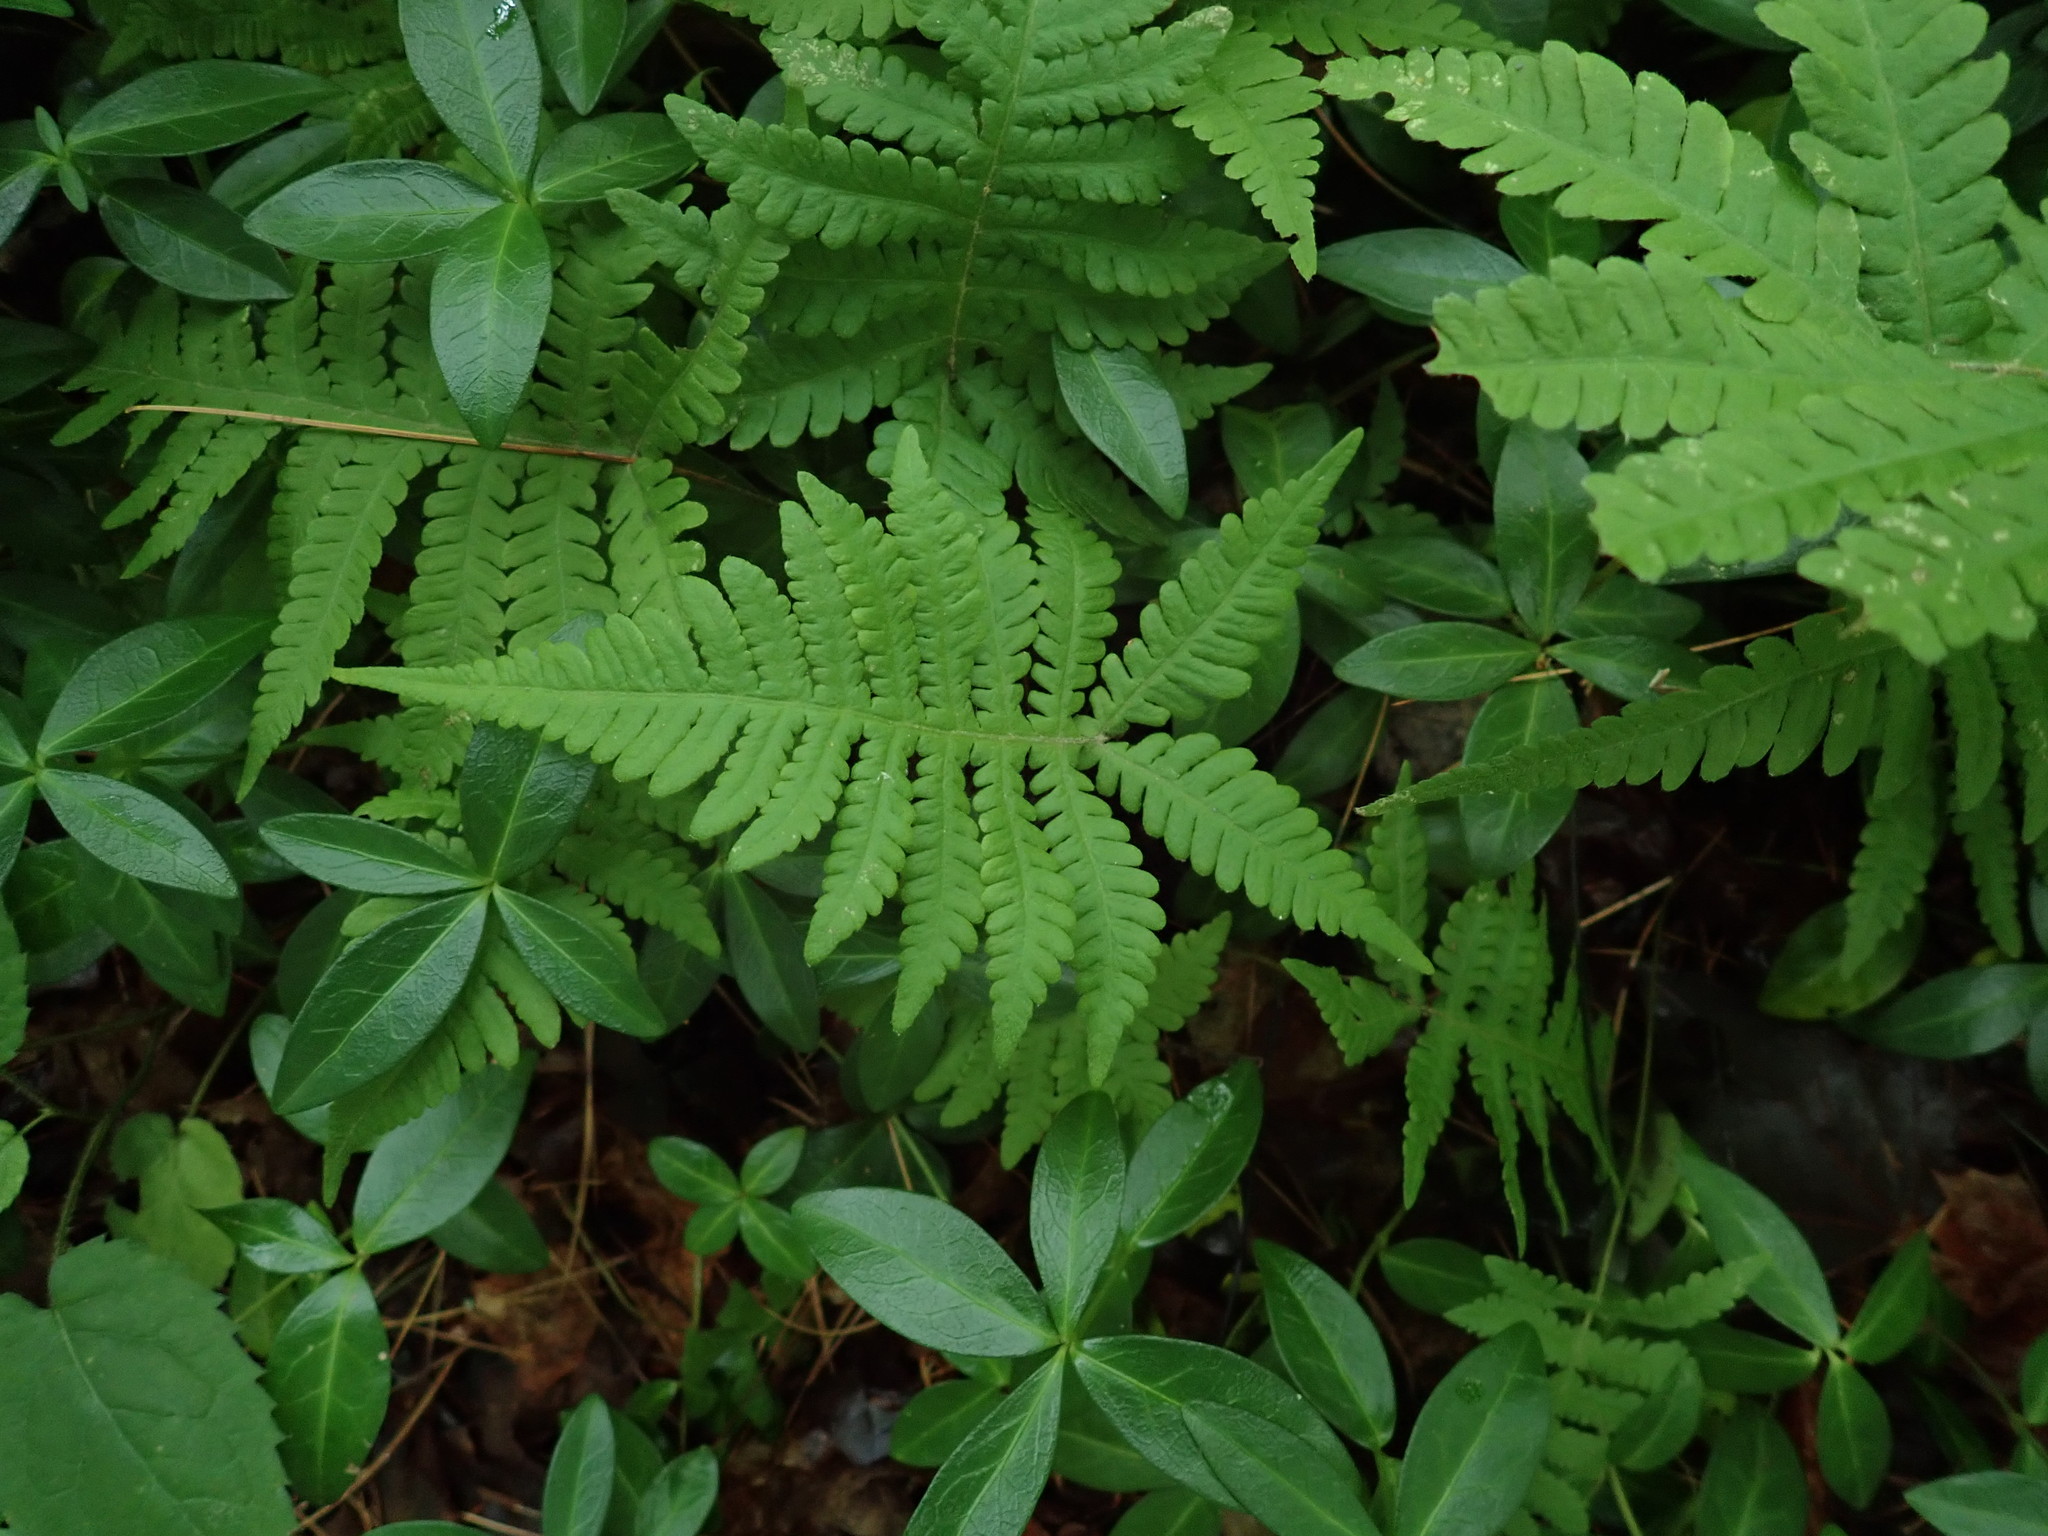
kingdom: Plantae
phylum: Tracheophyta
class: Polypodiopsida
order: Polypodiales
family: Thelypteridaceae
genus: Phegopteris
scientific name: Phegopteris connectilis
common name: Beech fern
